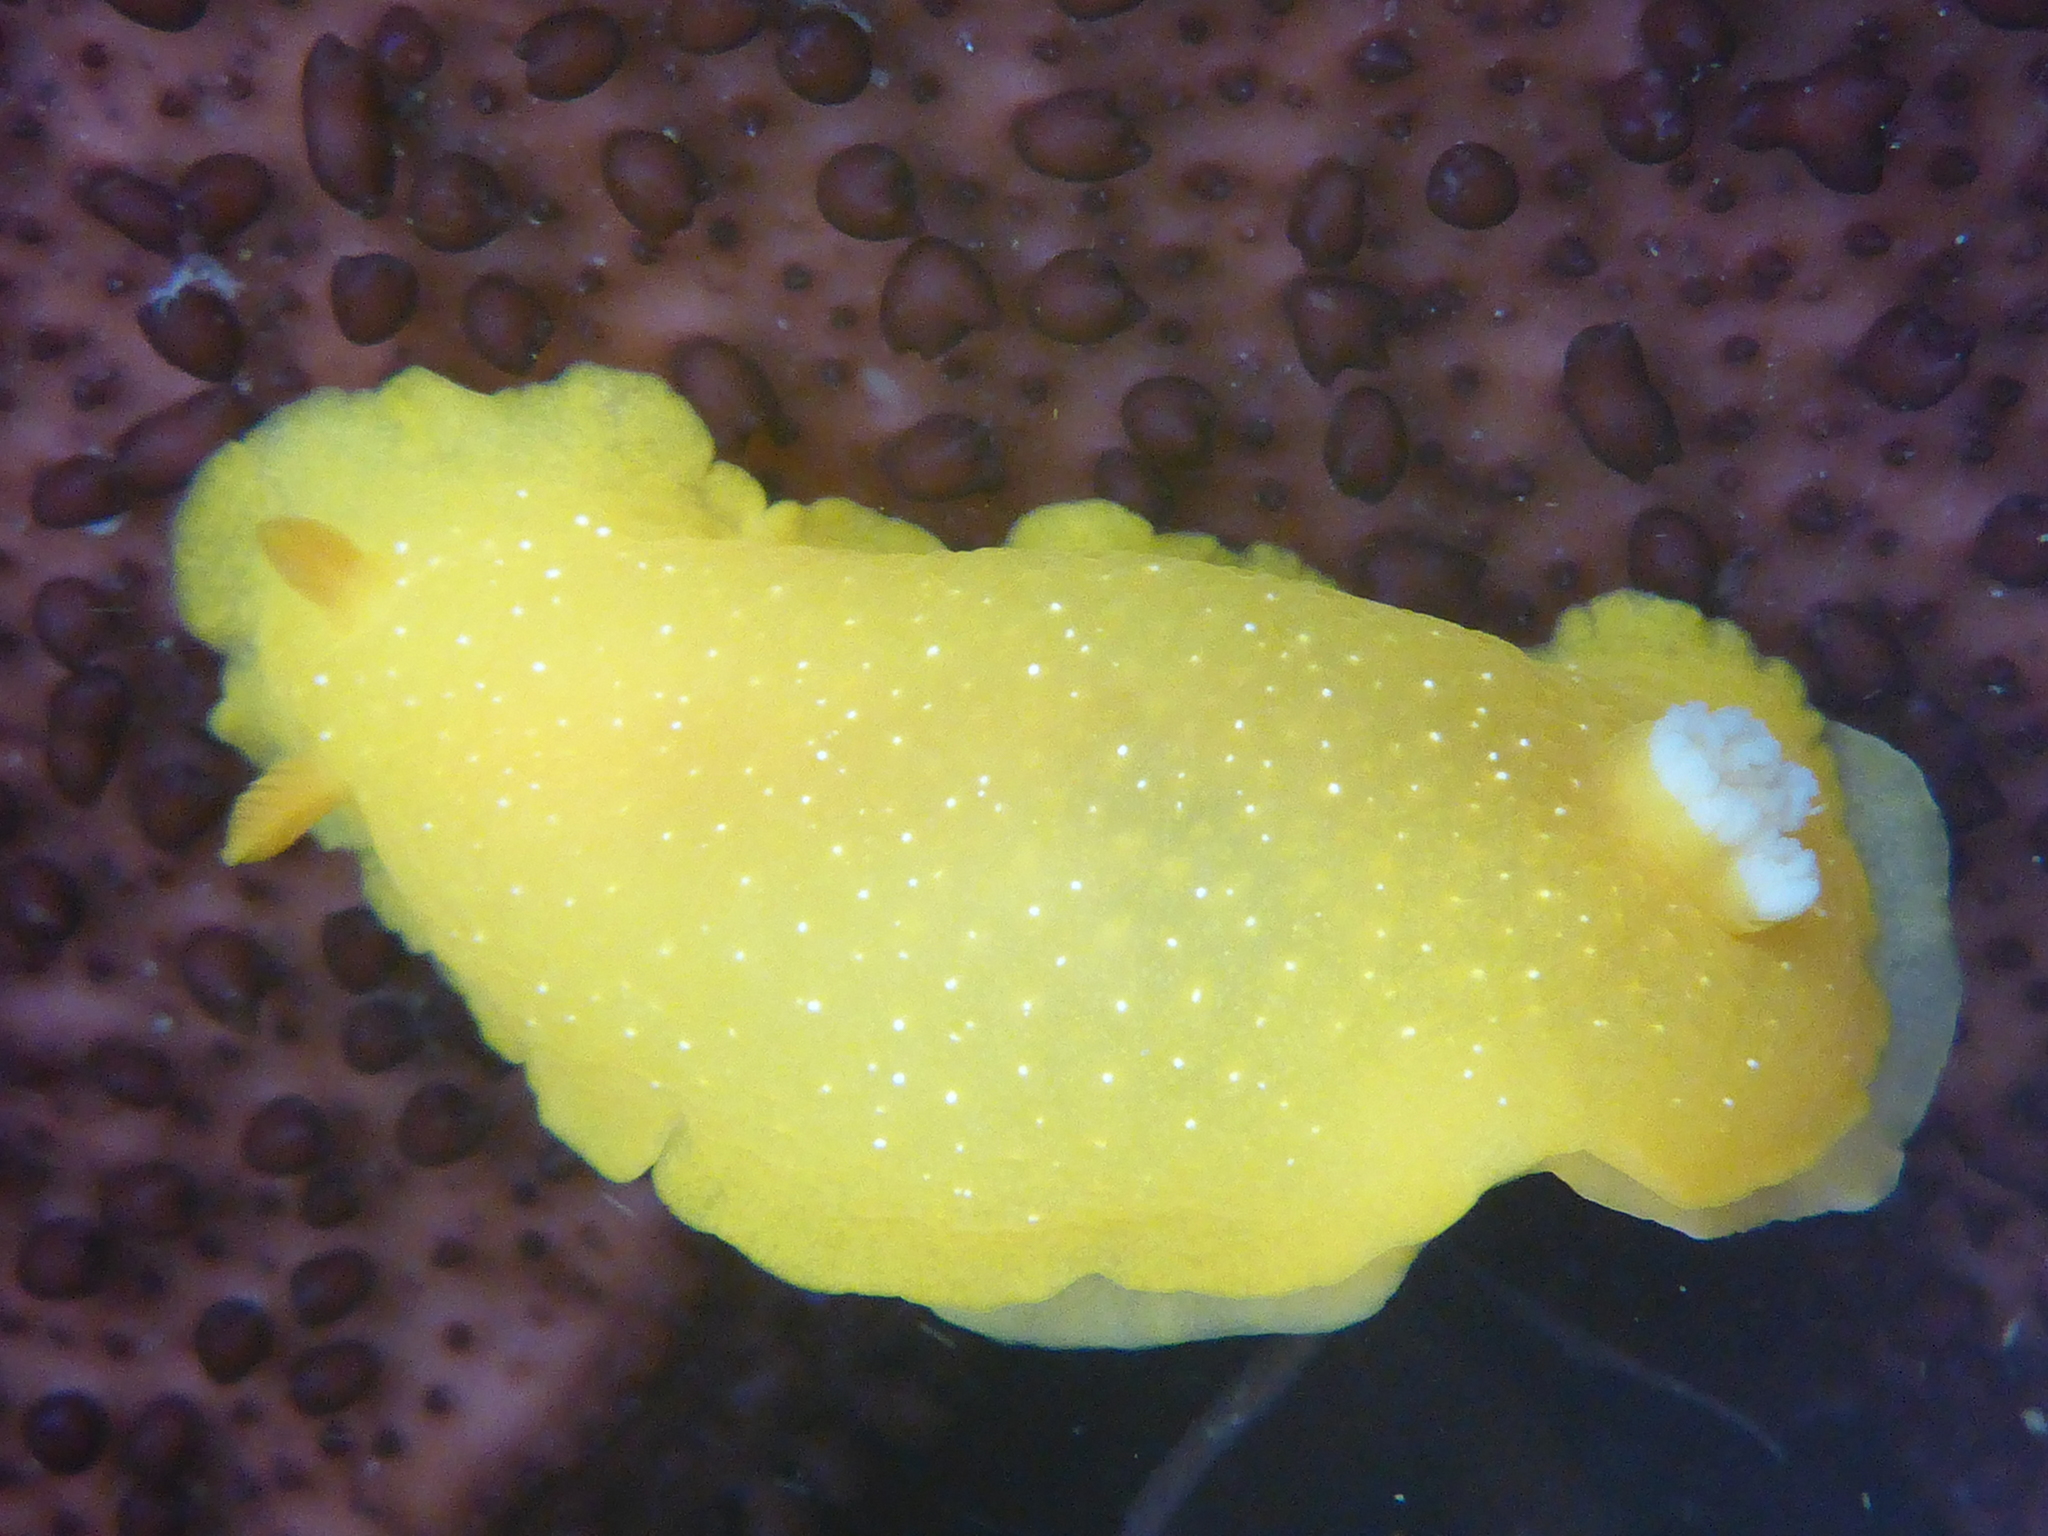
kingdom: Animalia
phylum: Mollusca
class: Gastropoda
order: Nudibranchia
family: Dendrodorididae
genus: Doriopsilla
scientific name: Doriopsilla fulva
